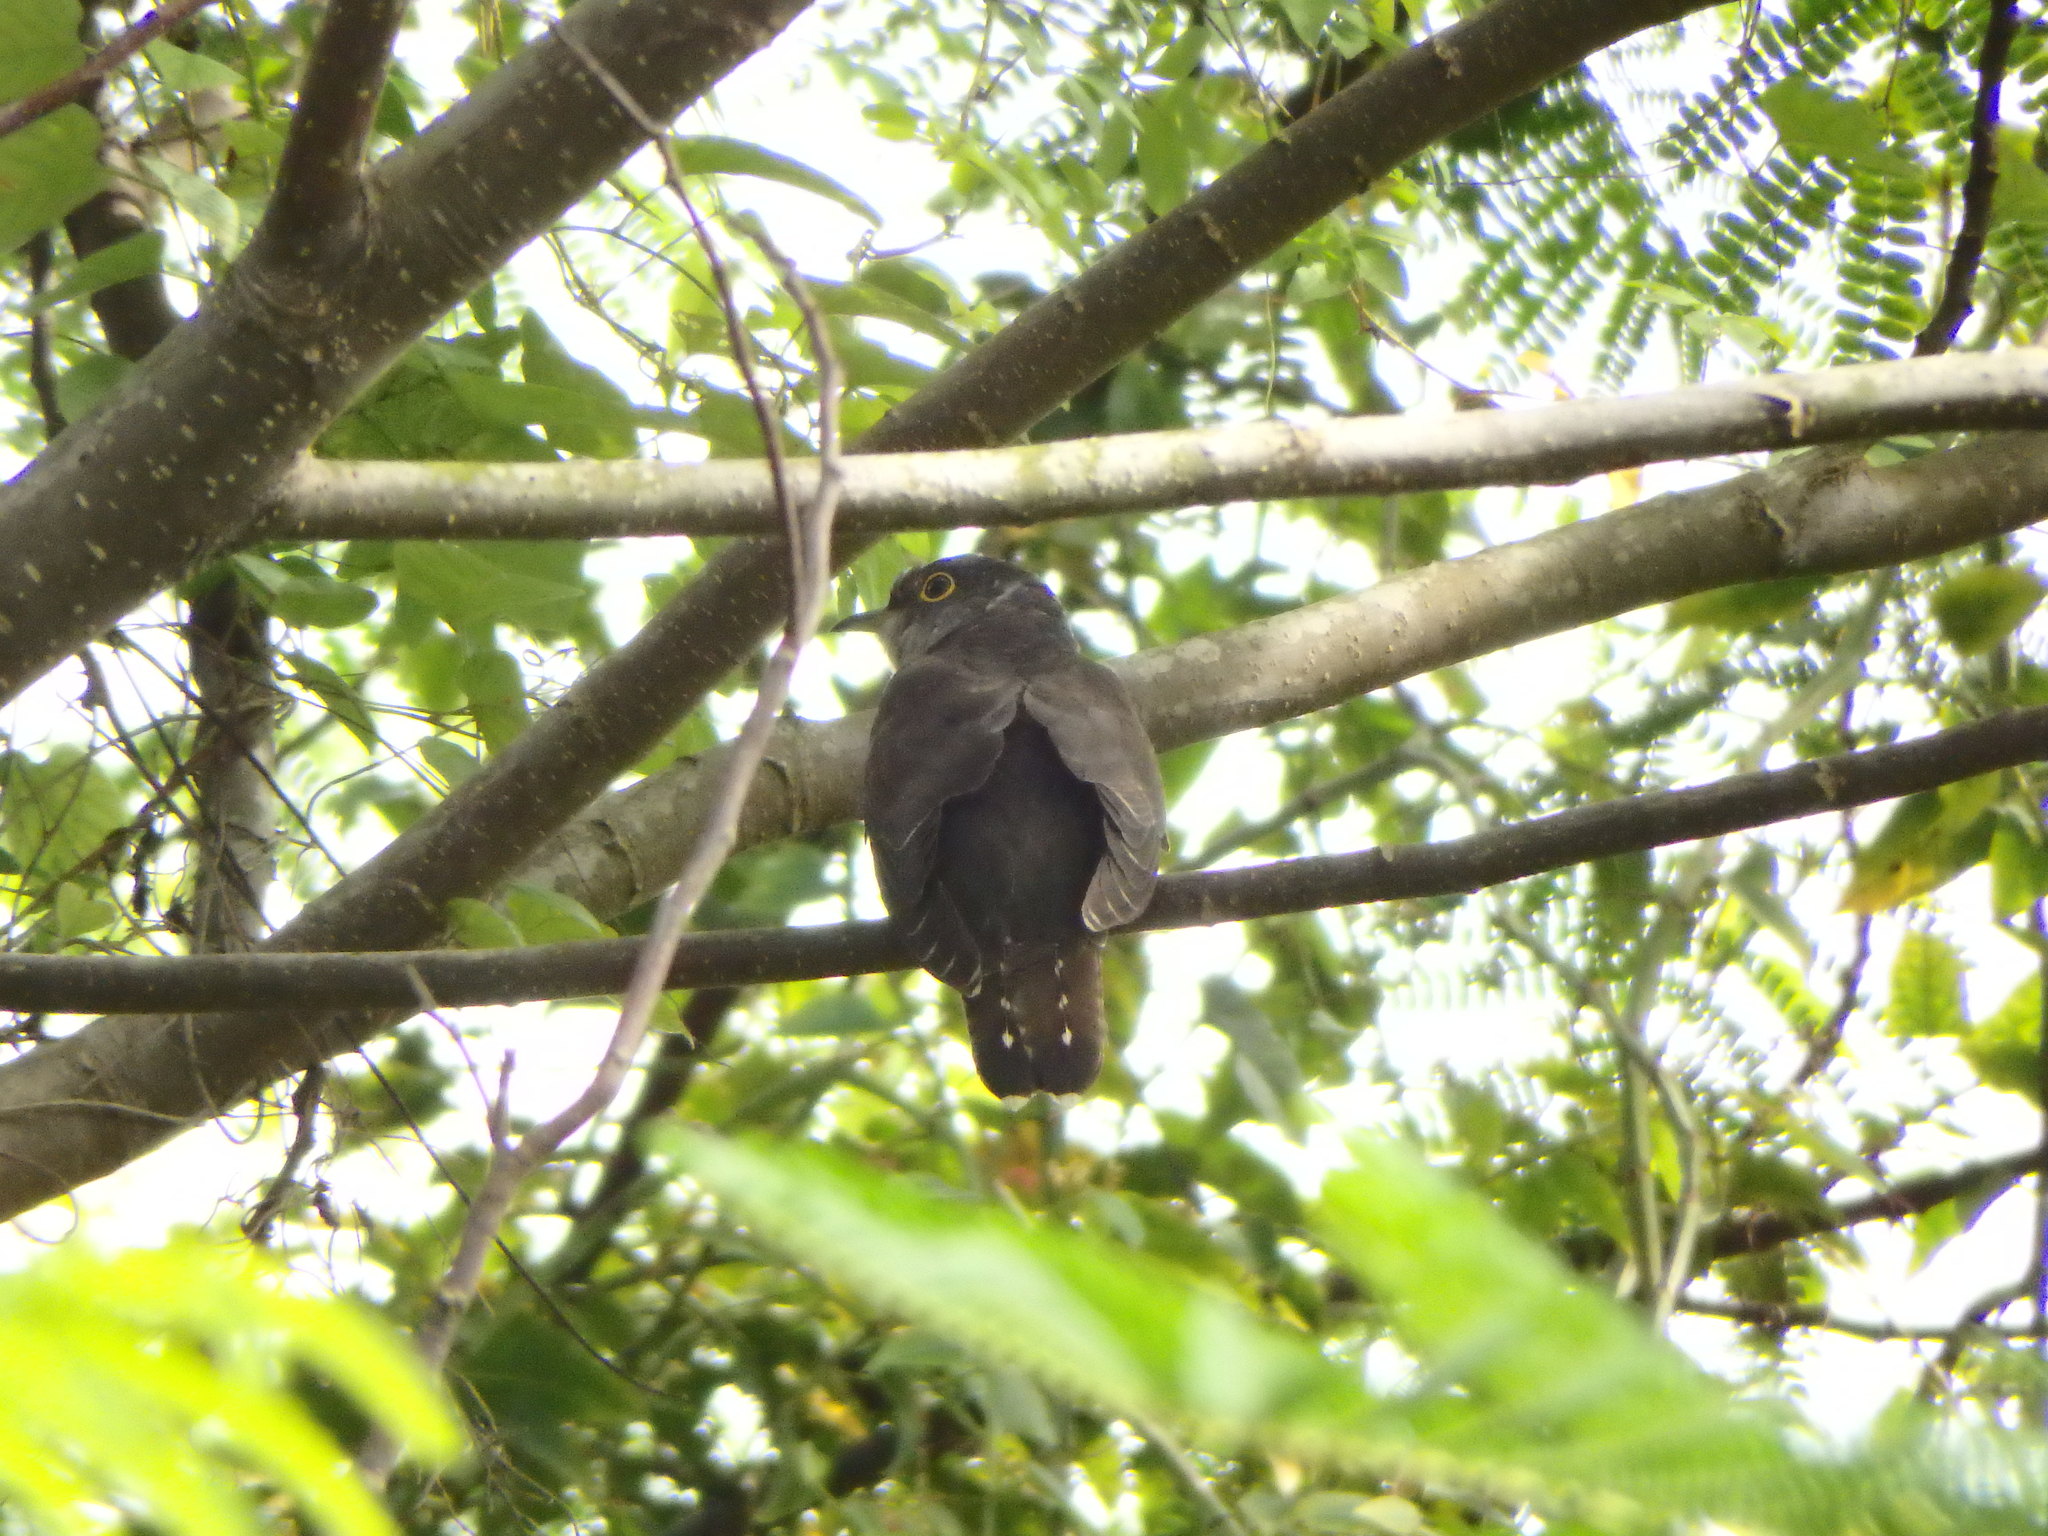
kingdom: Animalia
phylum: Chordata
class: Aves
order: Cuculiformes
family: Cuculidae
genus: Cuculus
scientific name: Cuculus micropterus
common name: Indian cuckoo
